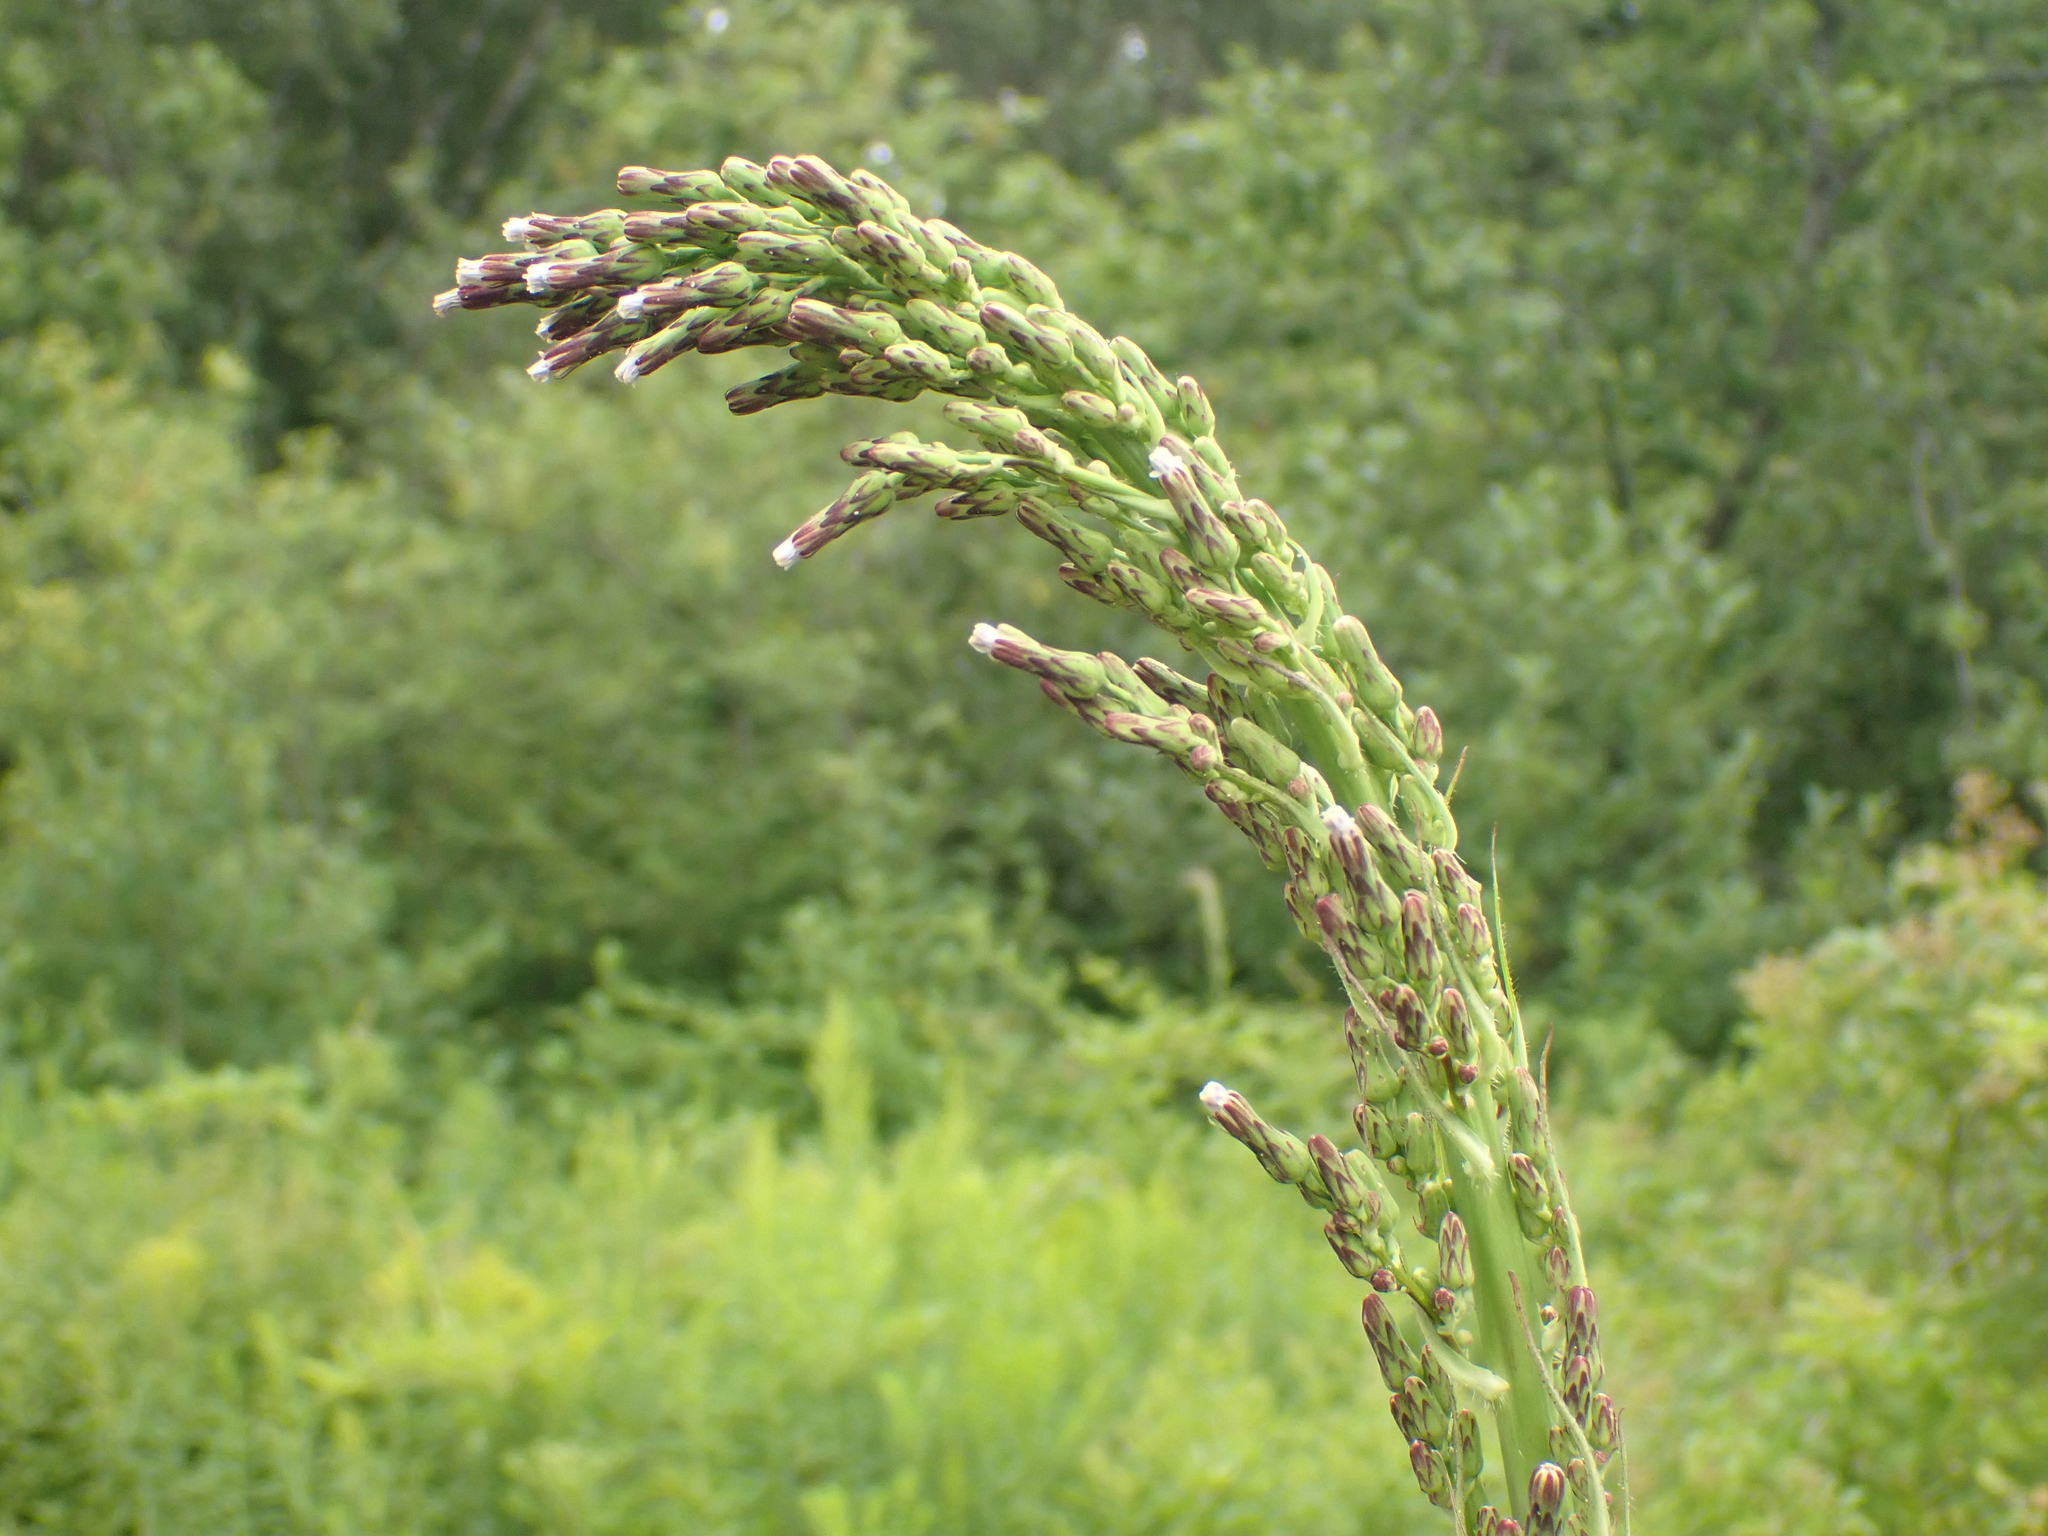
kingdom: Plantae
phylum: Tracheophyta
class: Magnoliopsida
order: Asterales
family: Asteraceae
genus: Lactuca
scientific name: Lactuca biennis
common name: Blue wood lettuce
